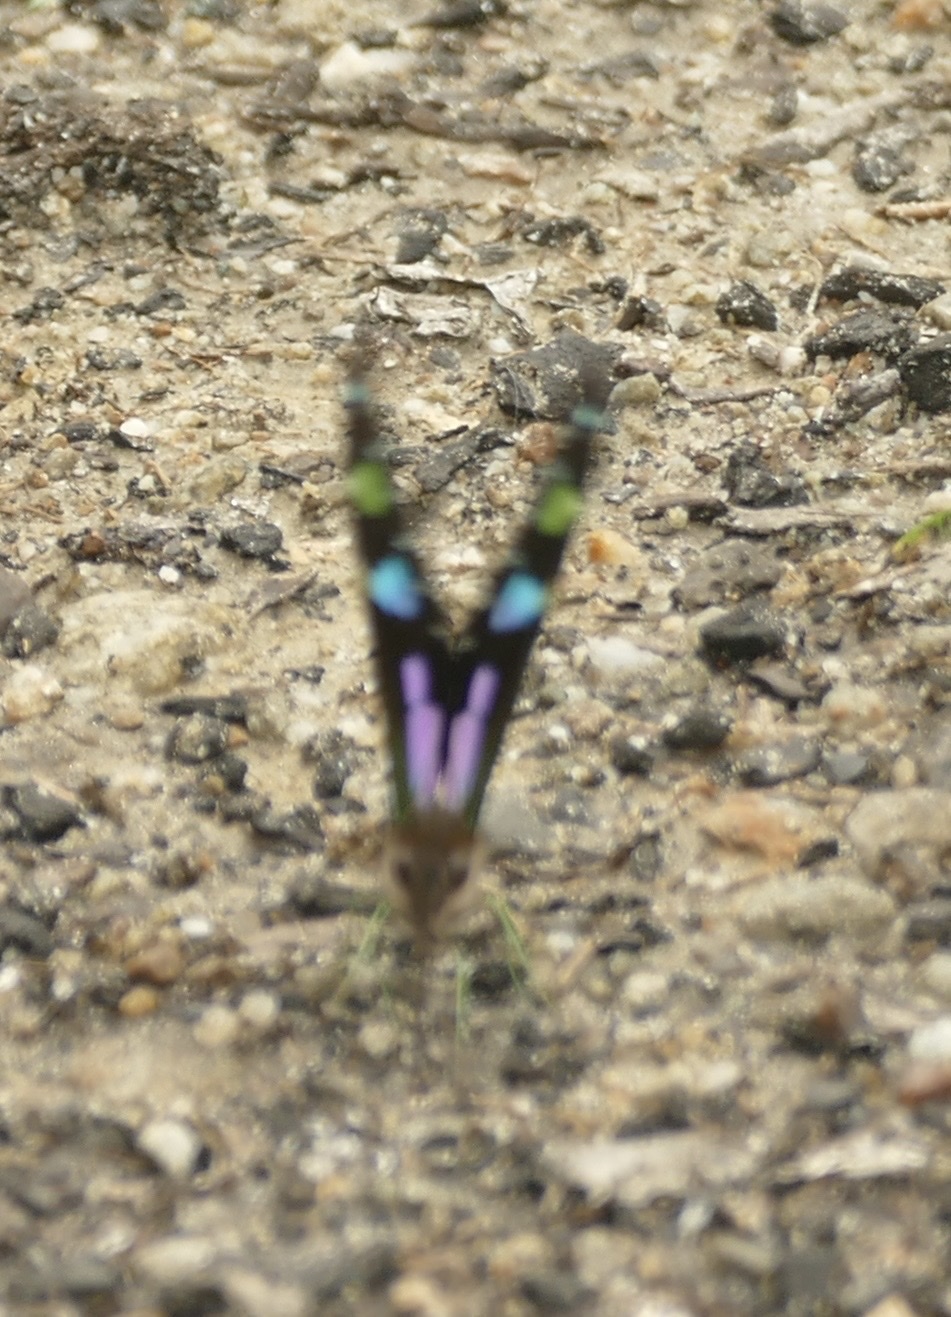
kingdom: Animalia
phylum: Arthropoda
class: Insecta
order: Lepidoptera
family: Papilionidae
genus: Graphium
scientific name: Graphium weiskei
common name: Purple spotted swallowtail
